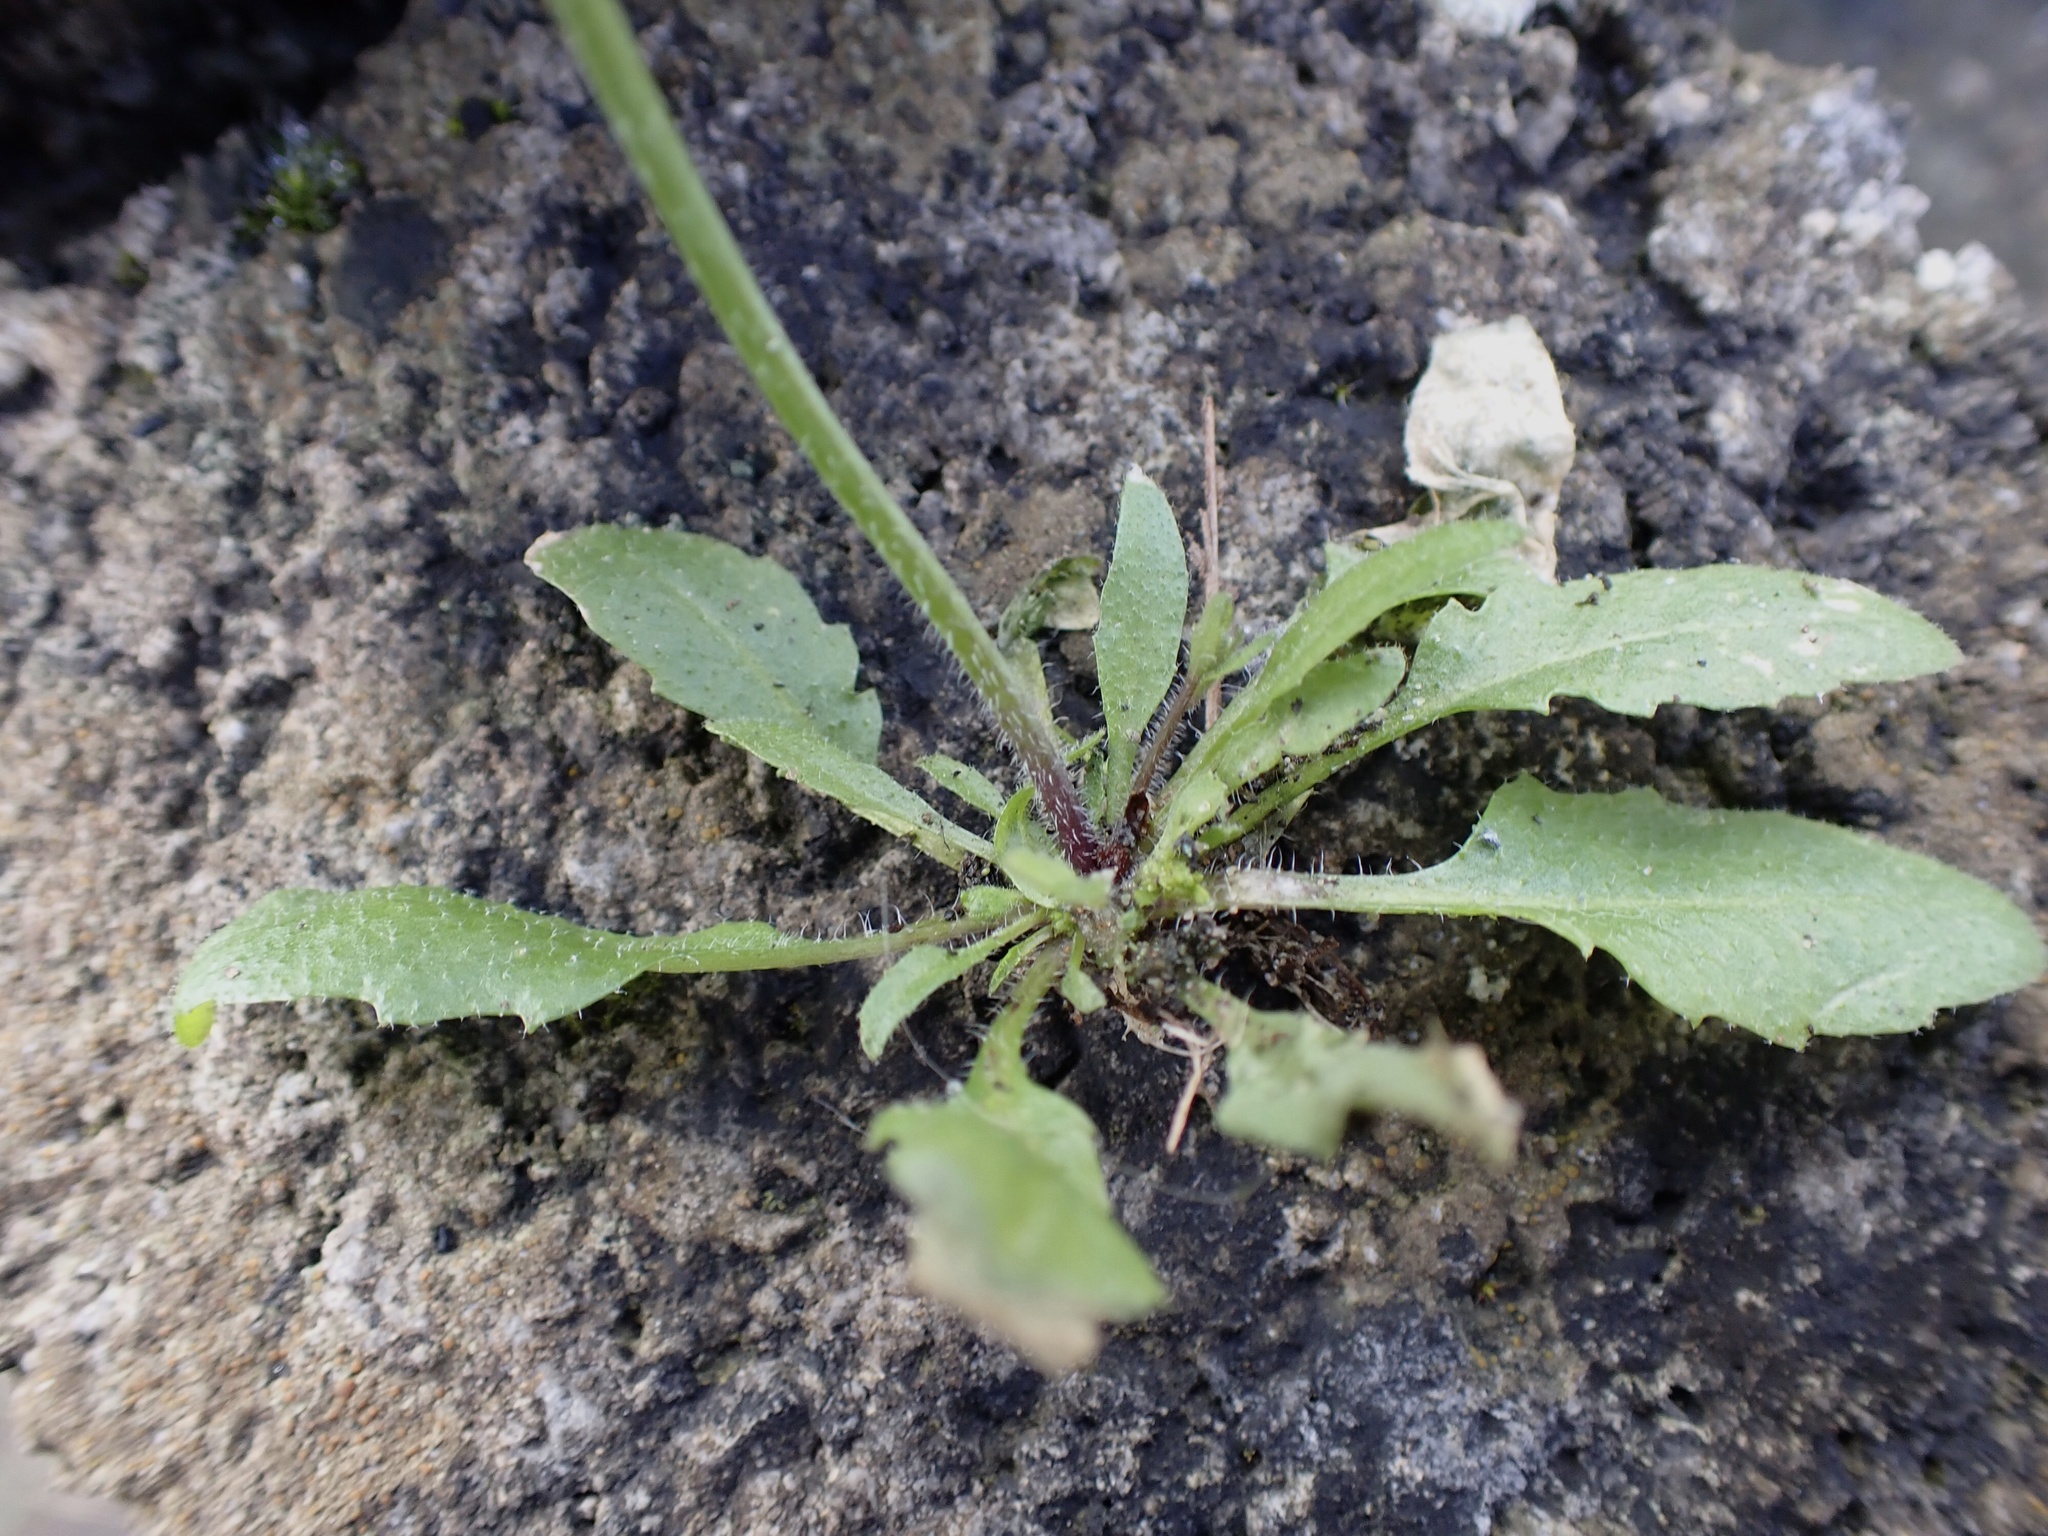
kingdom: Plantae
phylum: Tracheophyta
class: Magnoliopsida
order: Brassicales
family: Brassicaceae
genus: Arabidopsis
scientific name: Arabidopsis thaliana
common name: Thale cress
